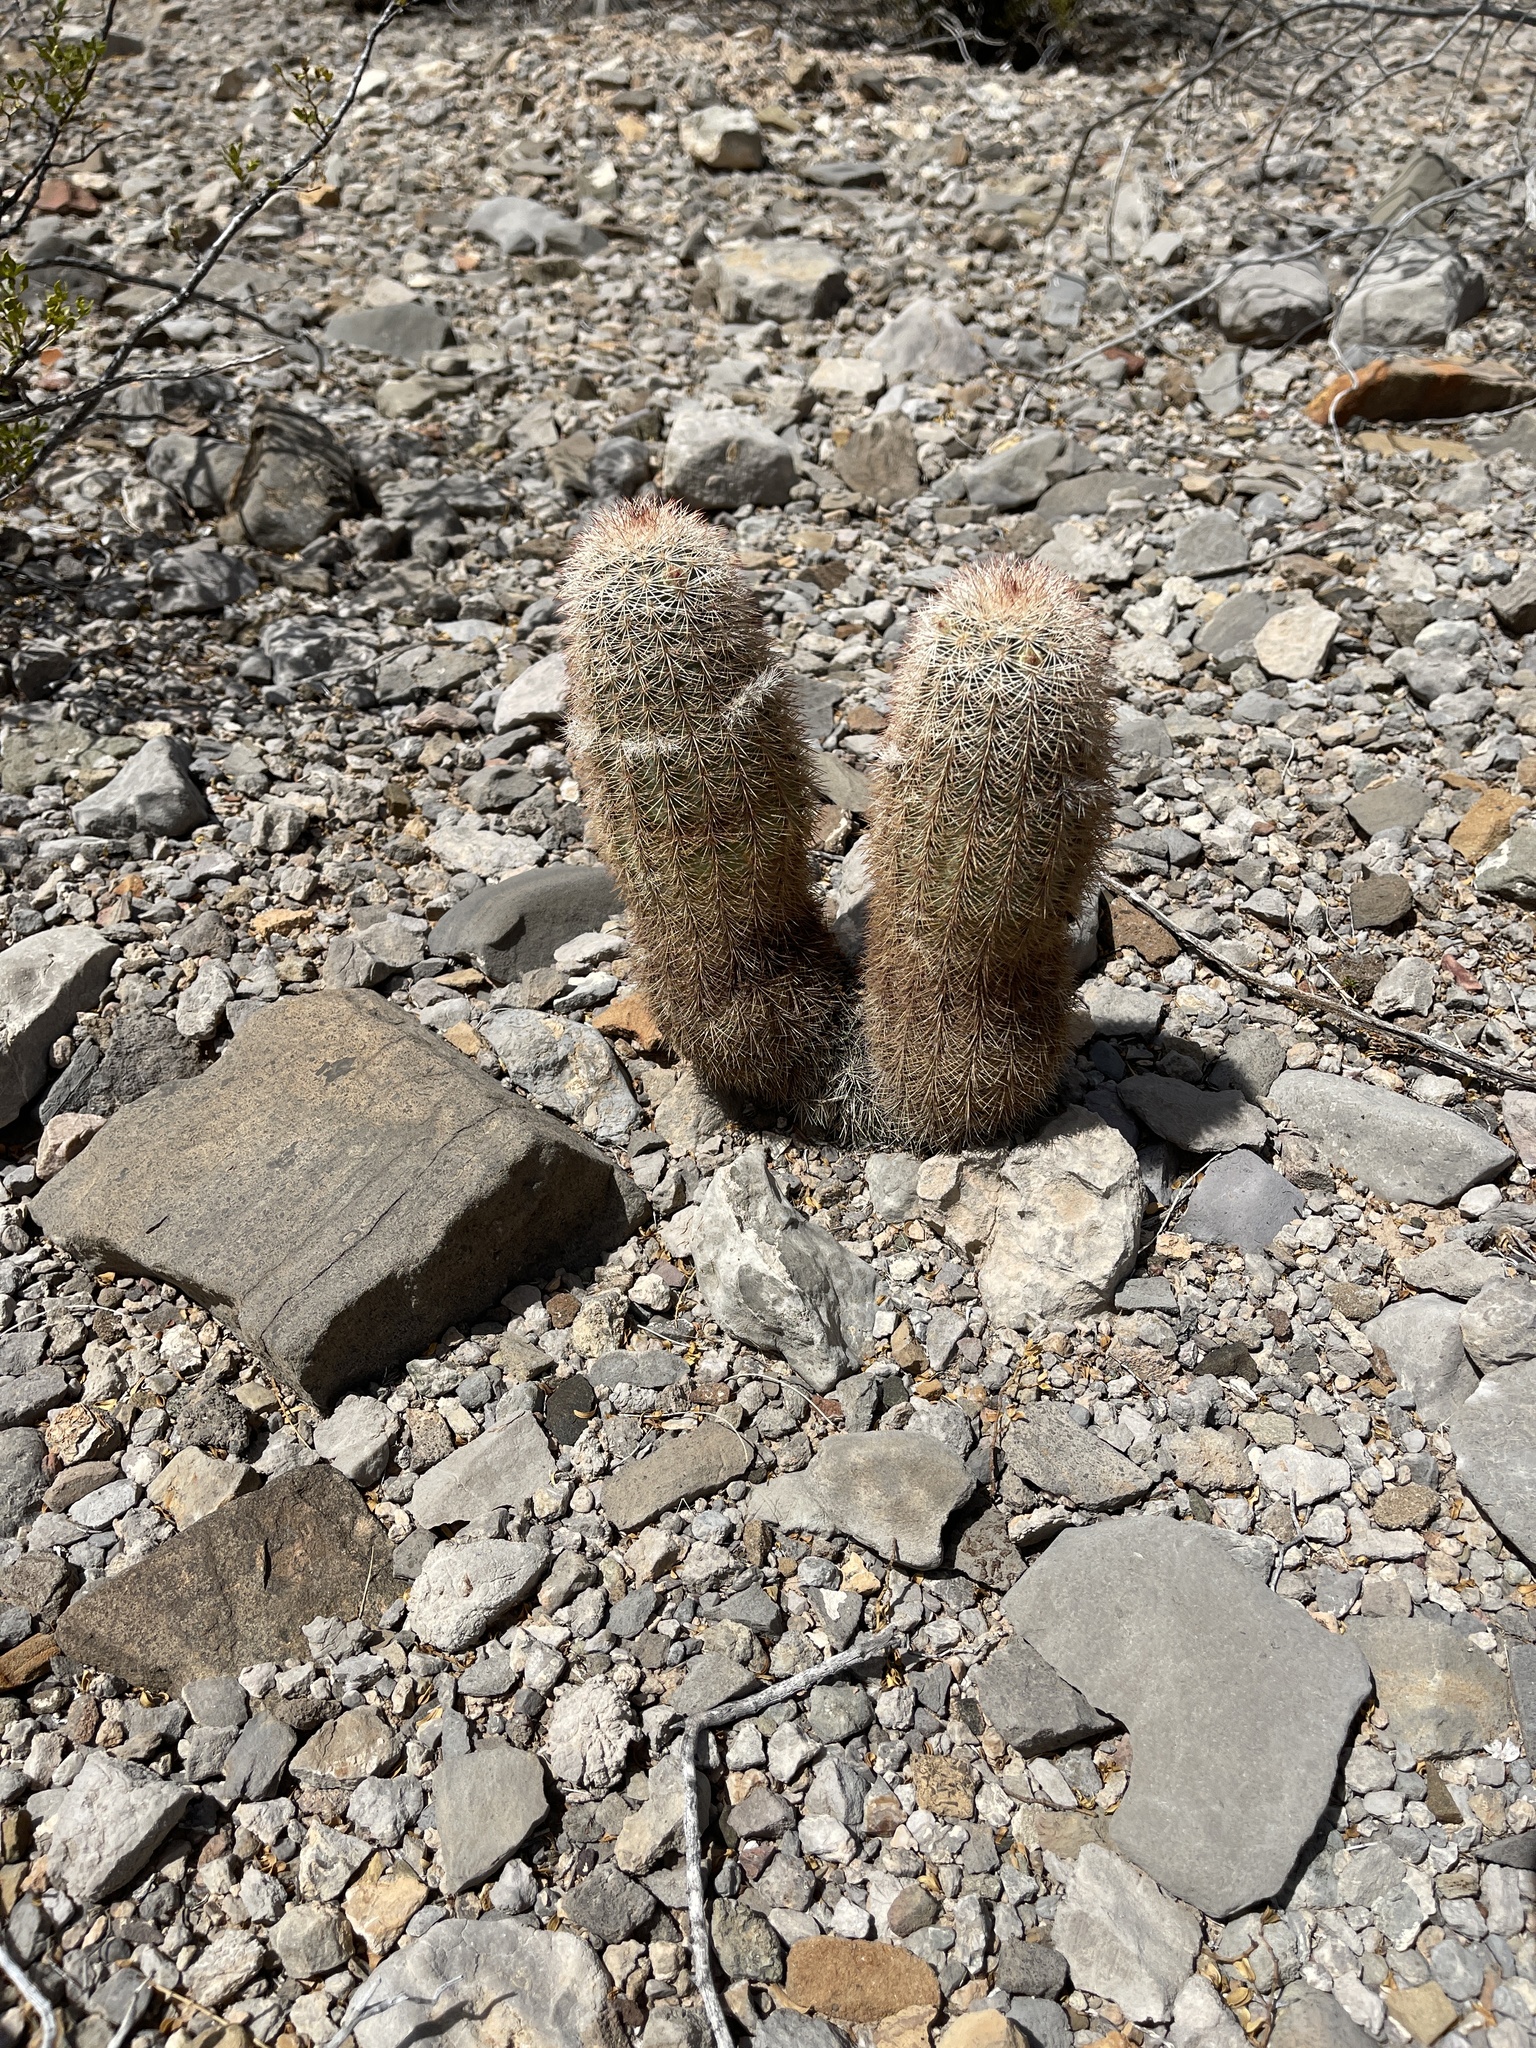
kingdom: Plantae
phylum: Tracheophyta
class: Magnoliopsida
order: Caryophyllales
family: Cactaceae
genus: Echinocereus
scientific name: Echinocereus dasyacanthus
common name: Spiny hedgehog cactus
